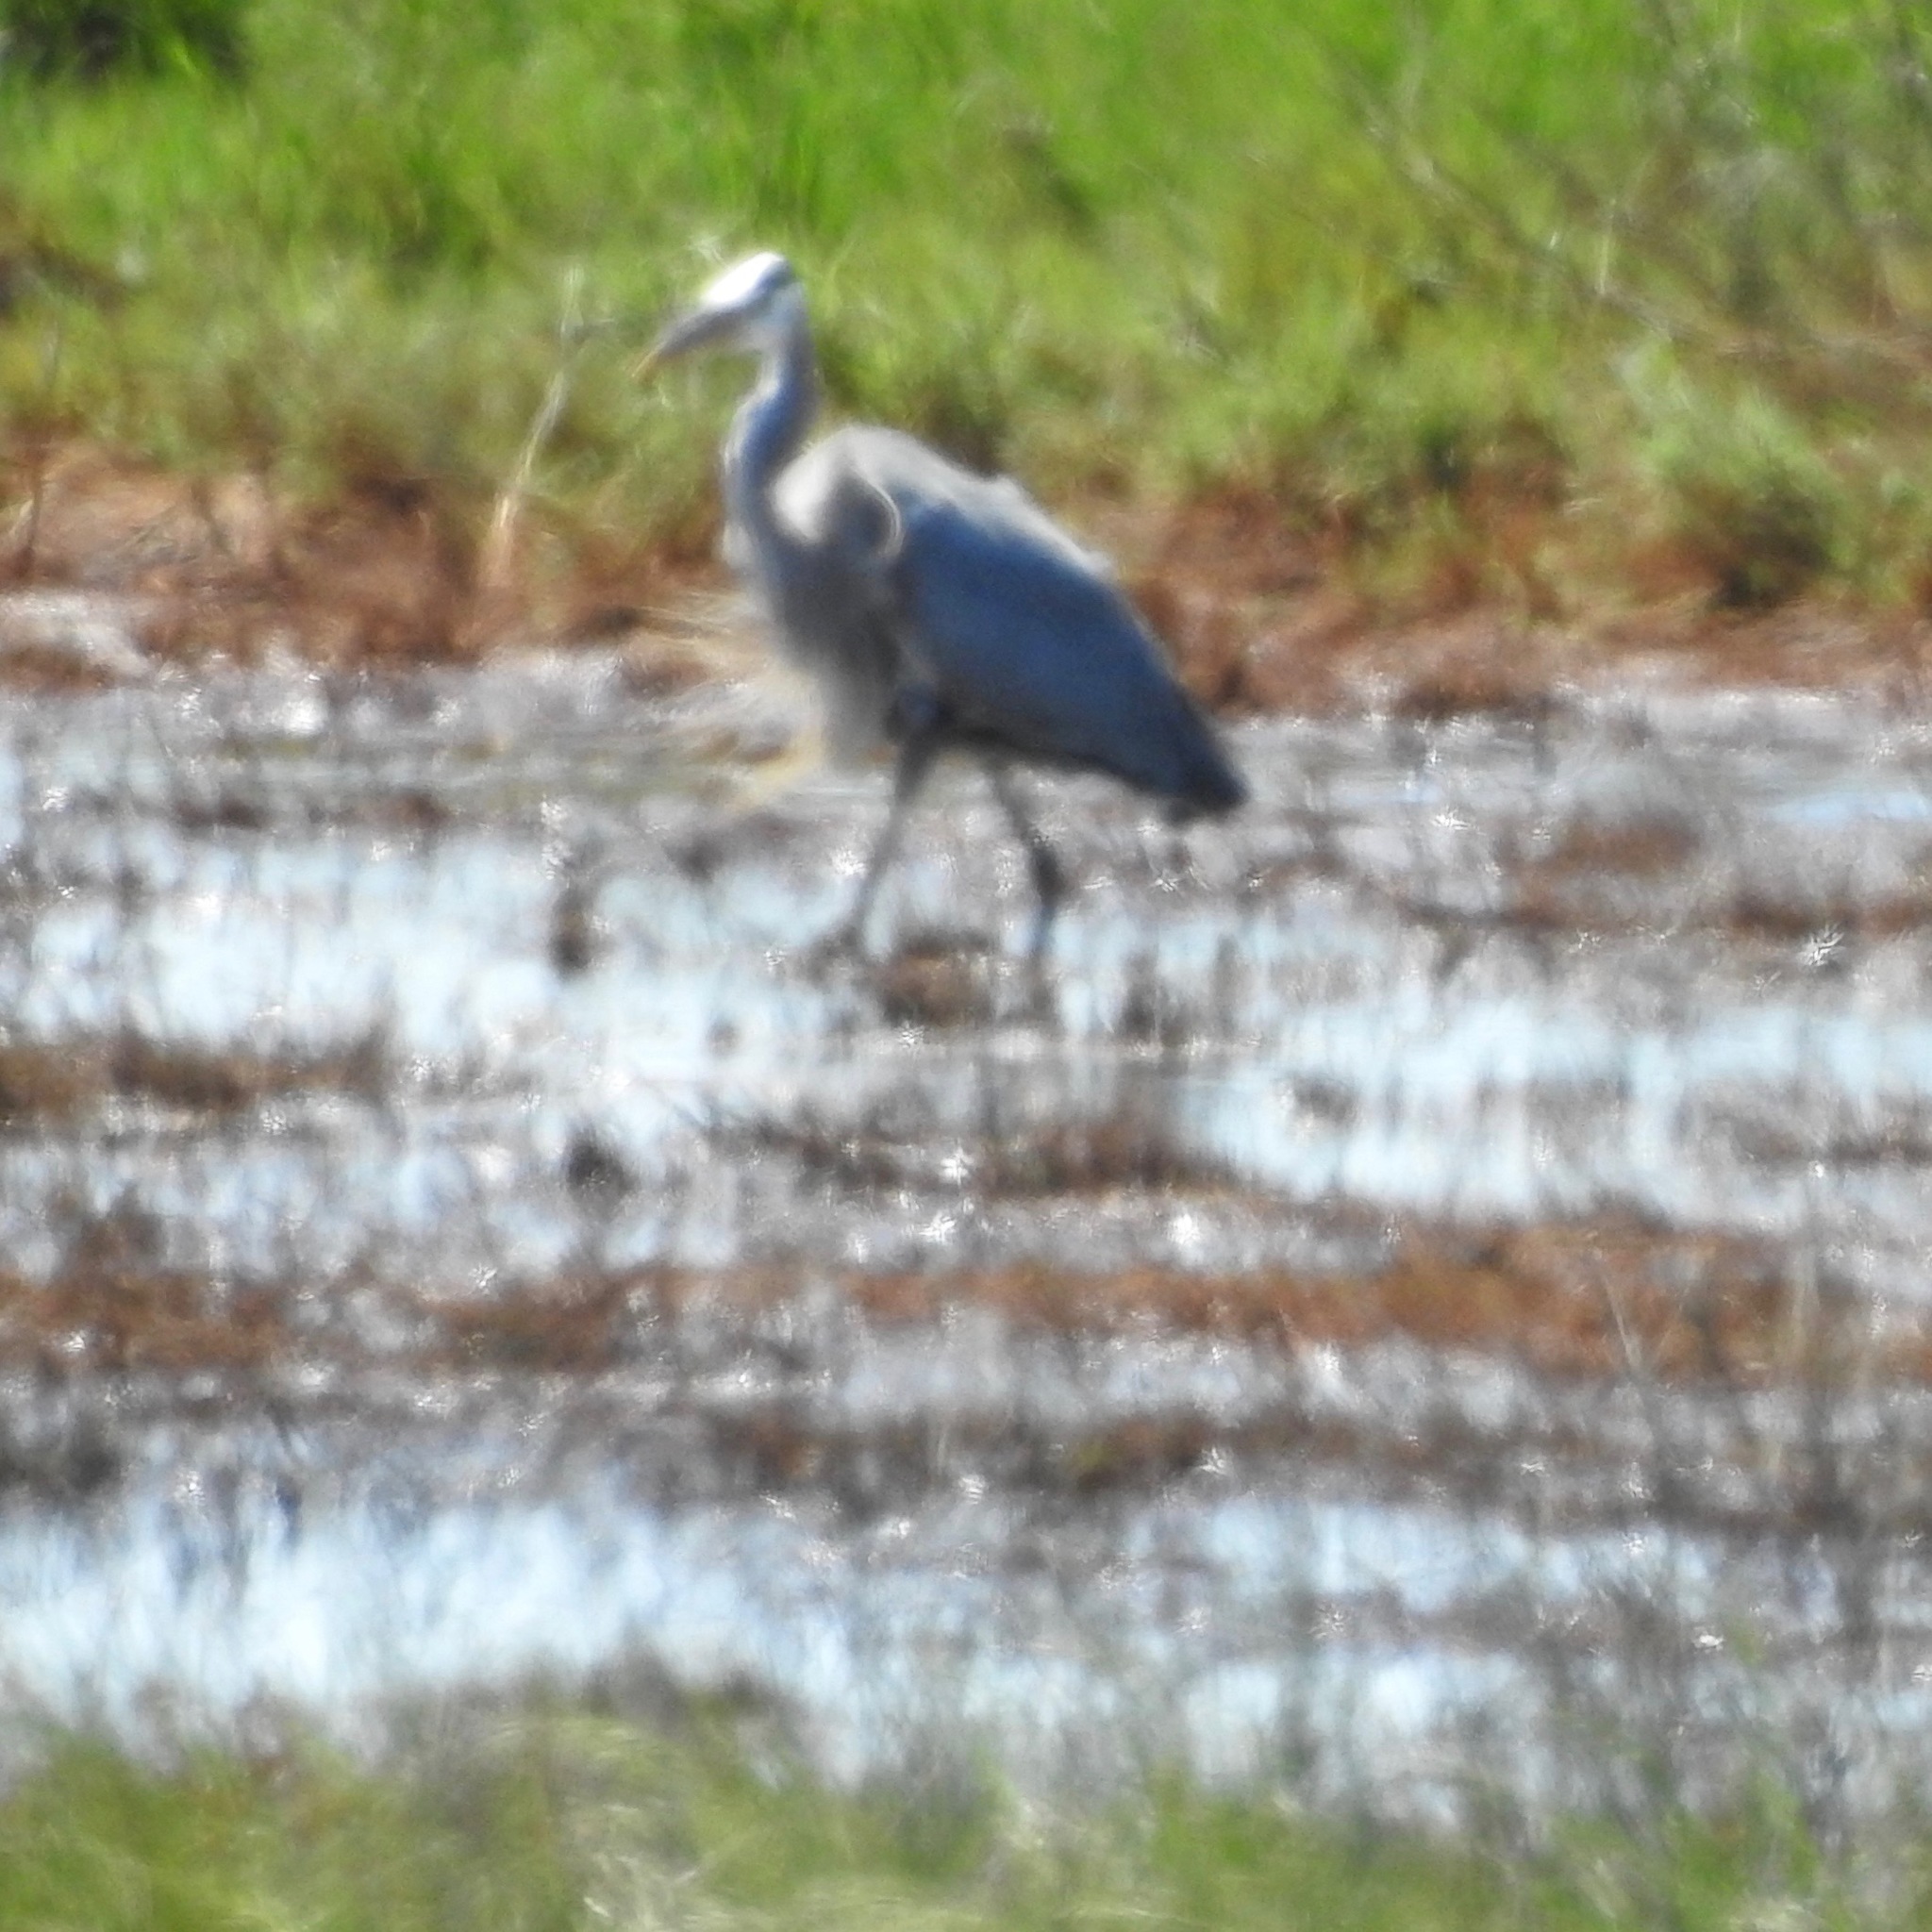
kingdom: Animalia
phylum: Chordata
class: Aves
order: Pelecaniformes
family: Ardeidae
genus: Ardea
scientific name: Ardea herodias
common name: Great blue heron
